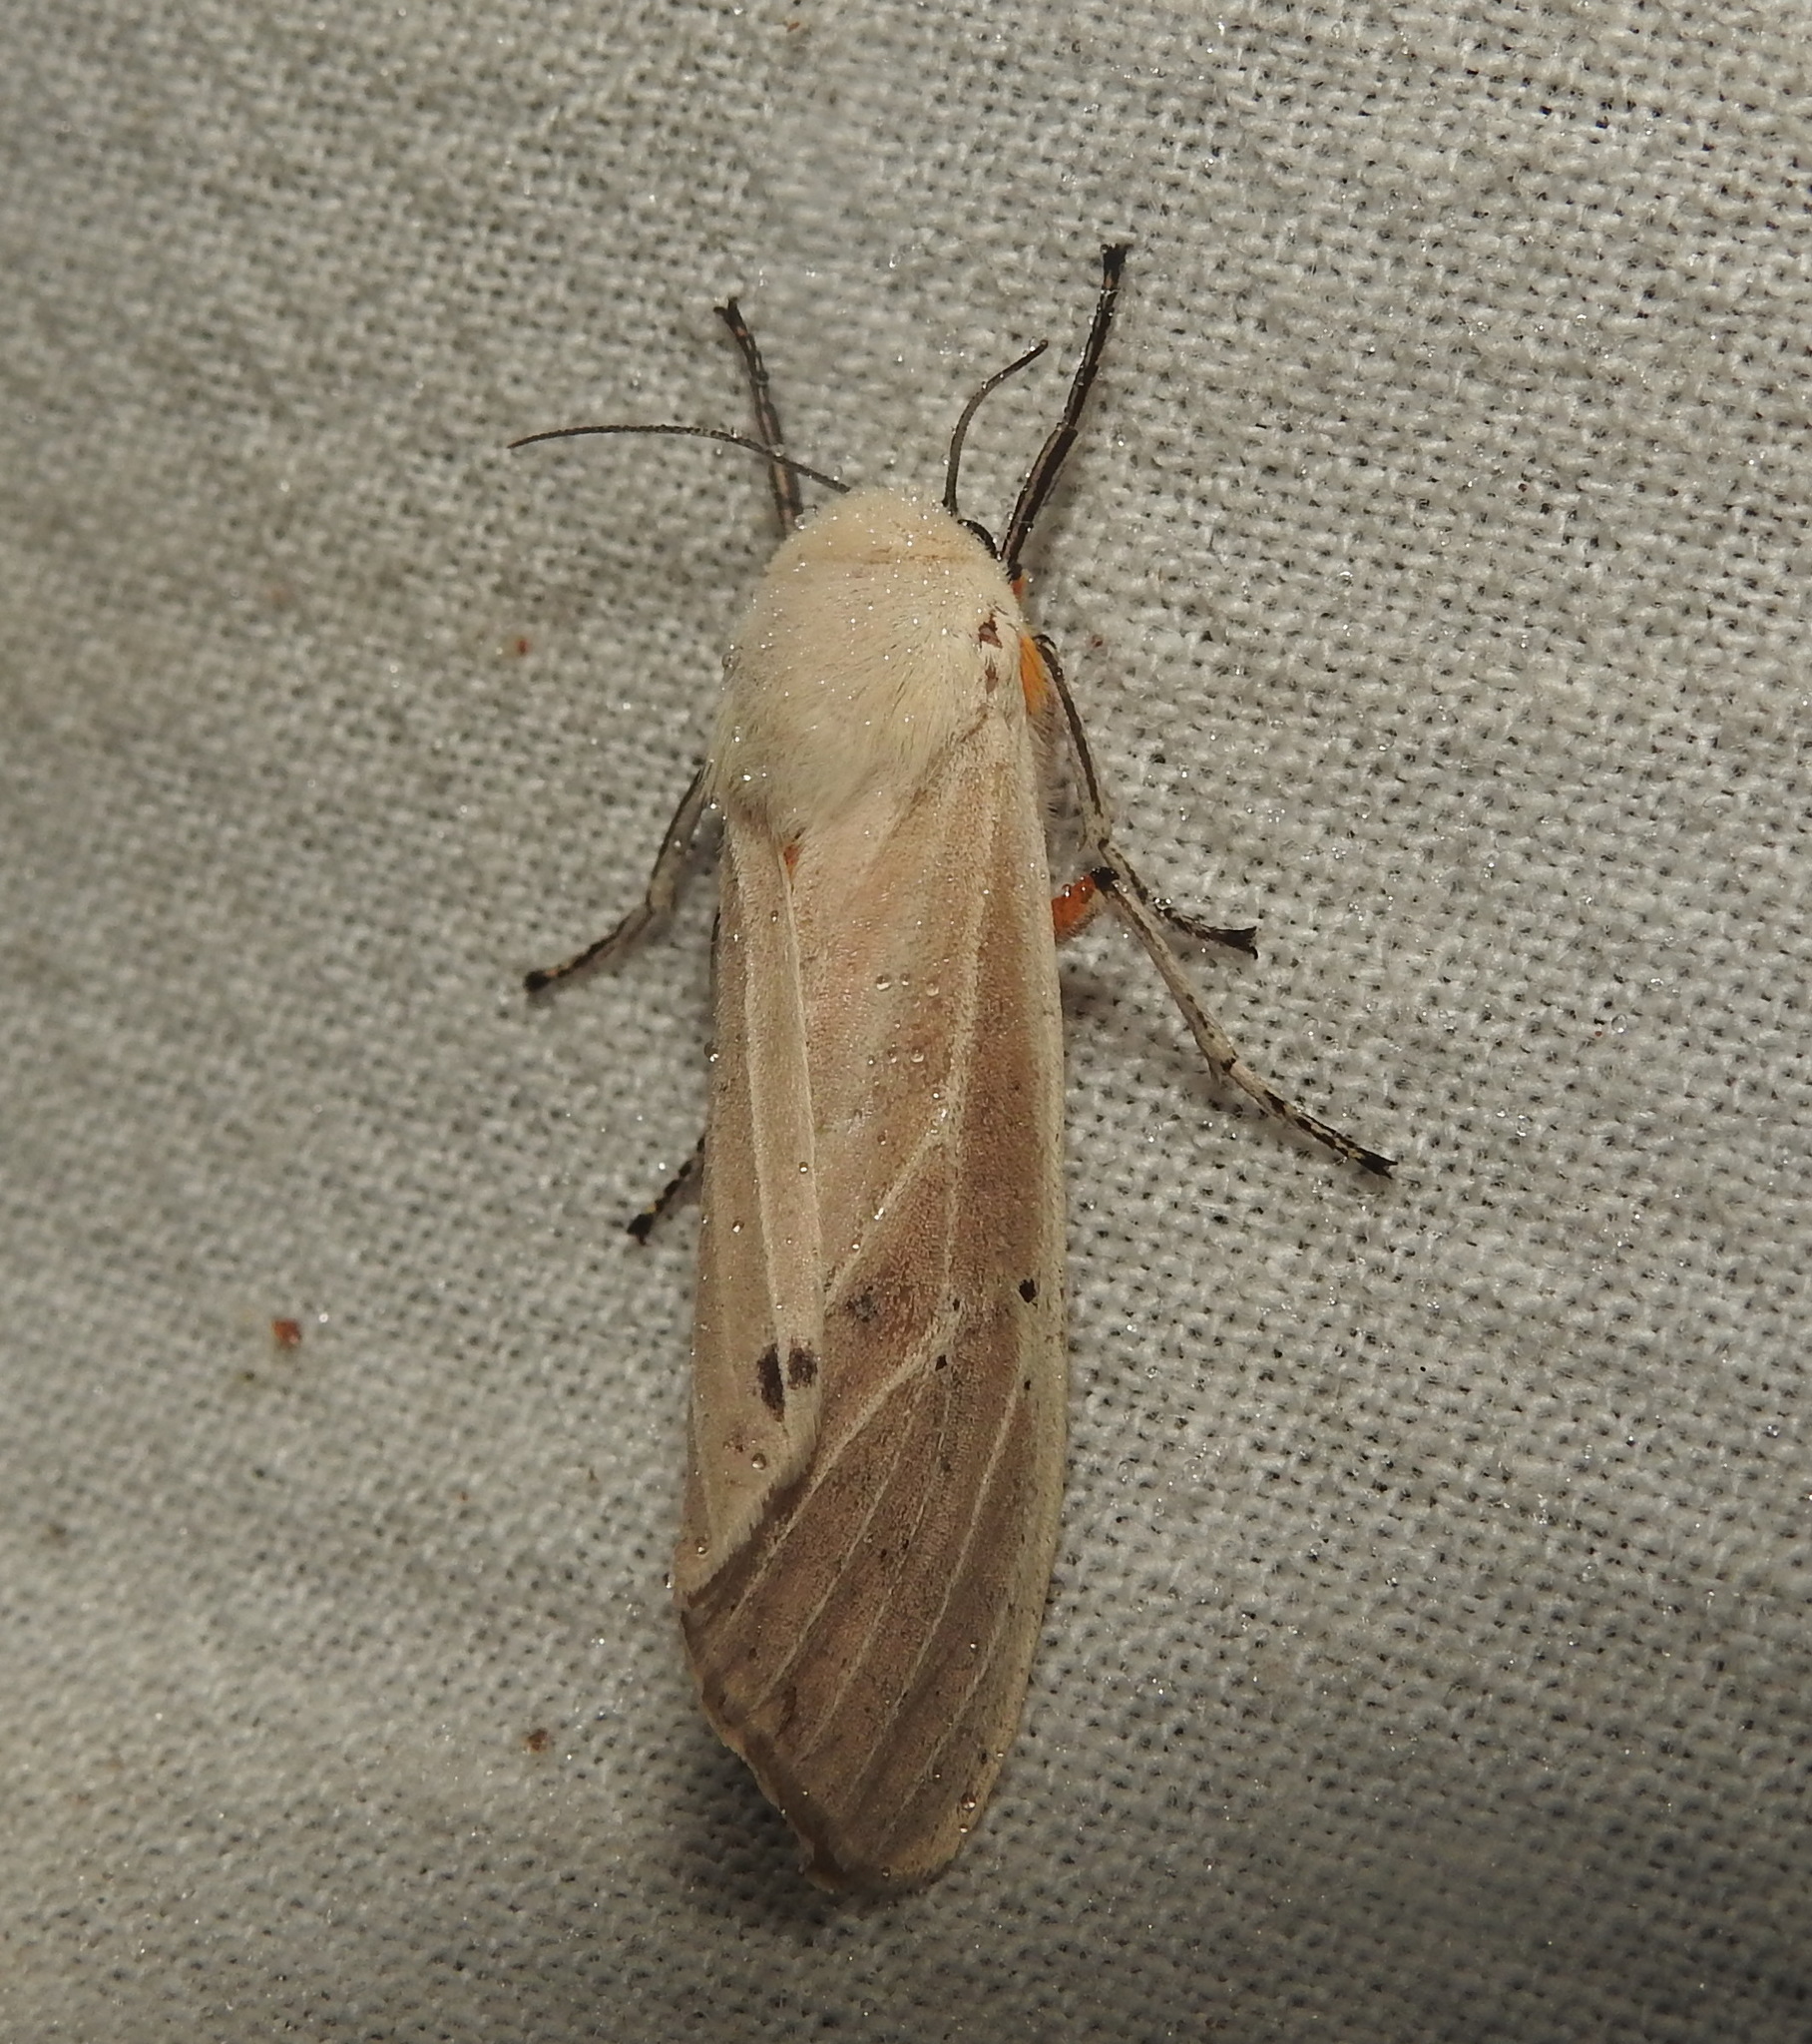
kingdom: Animalia
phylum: Arthropoda
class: Insecta
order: Lepidoptera
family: Erebidae
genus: Creatonotos
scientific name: Creatonotos transiens
